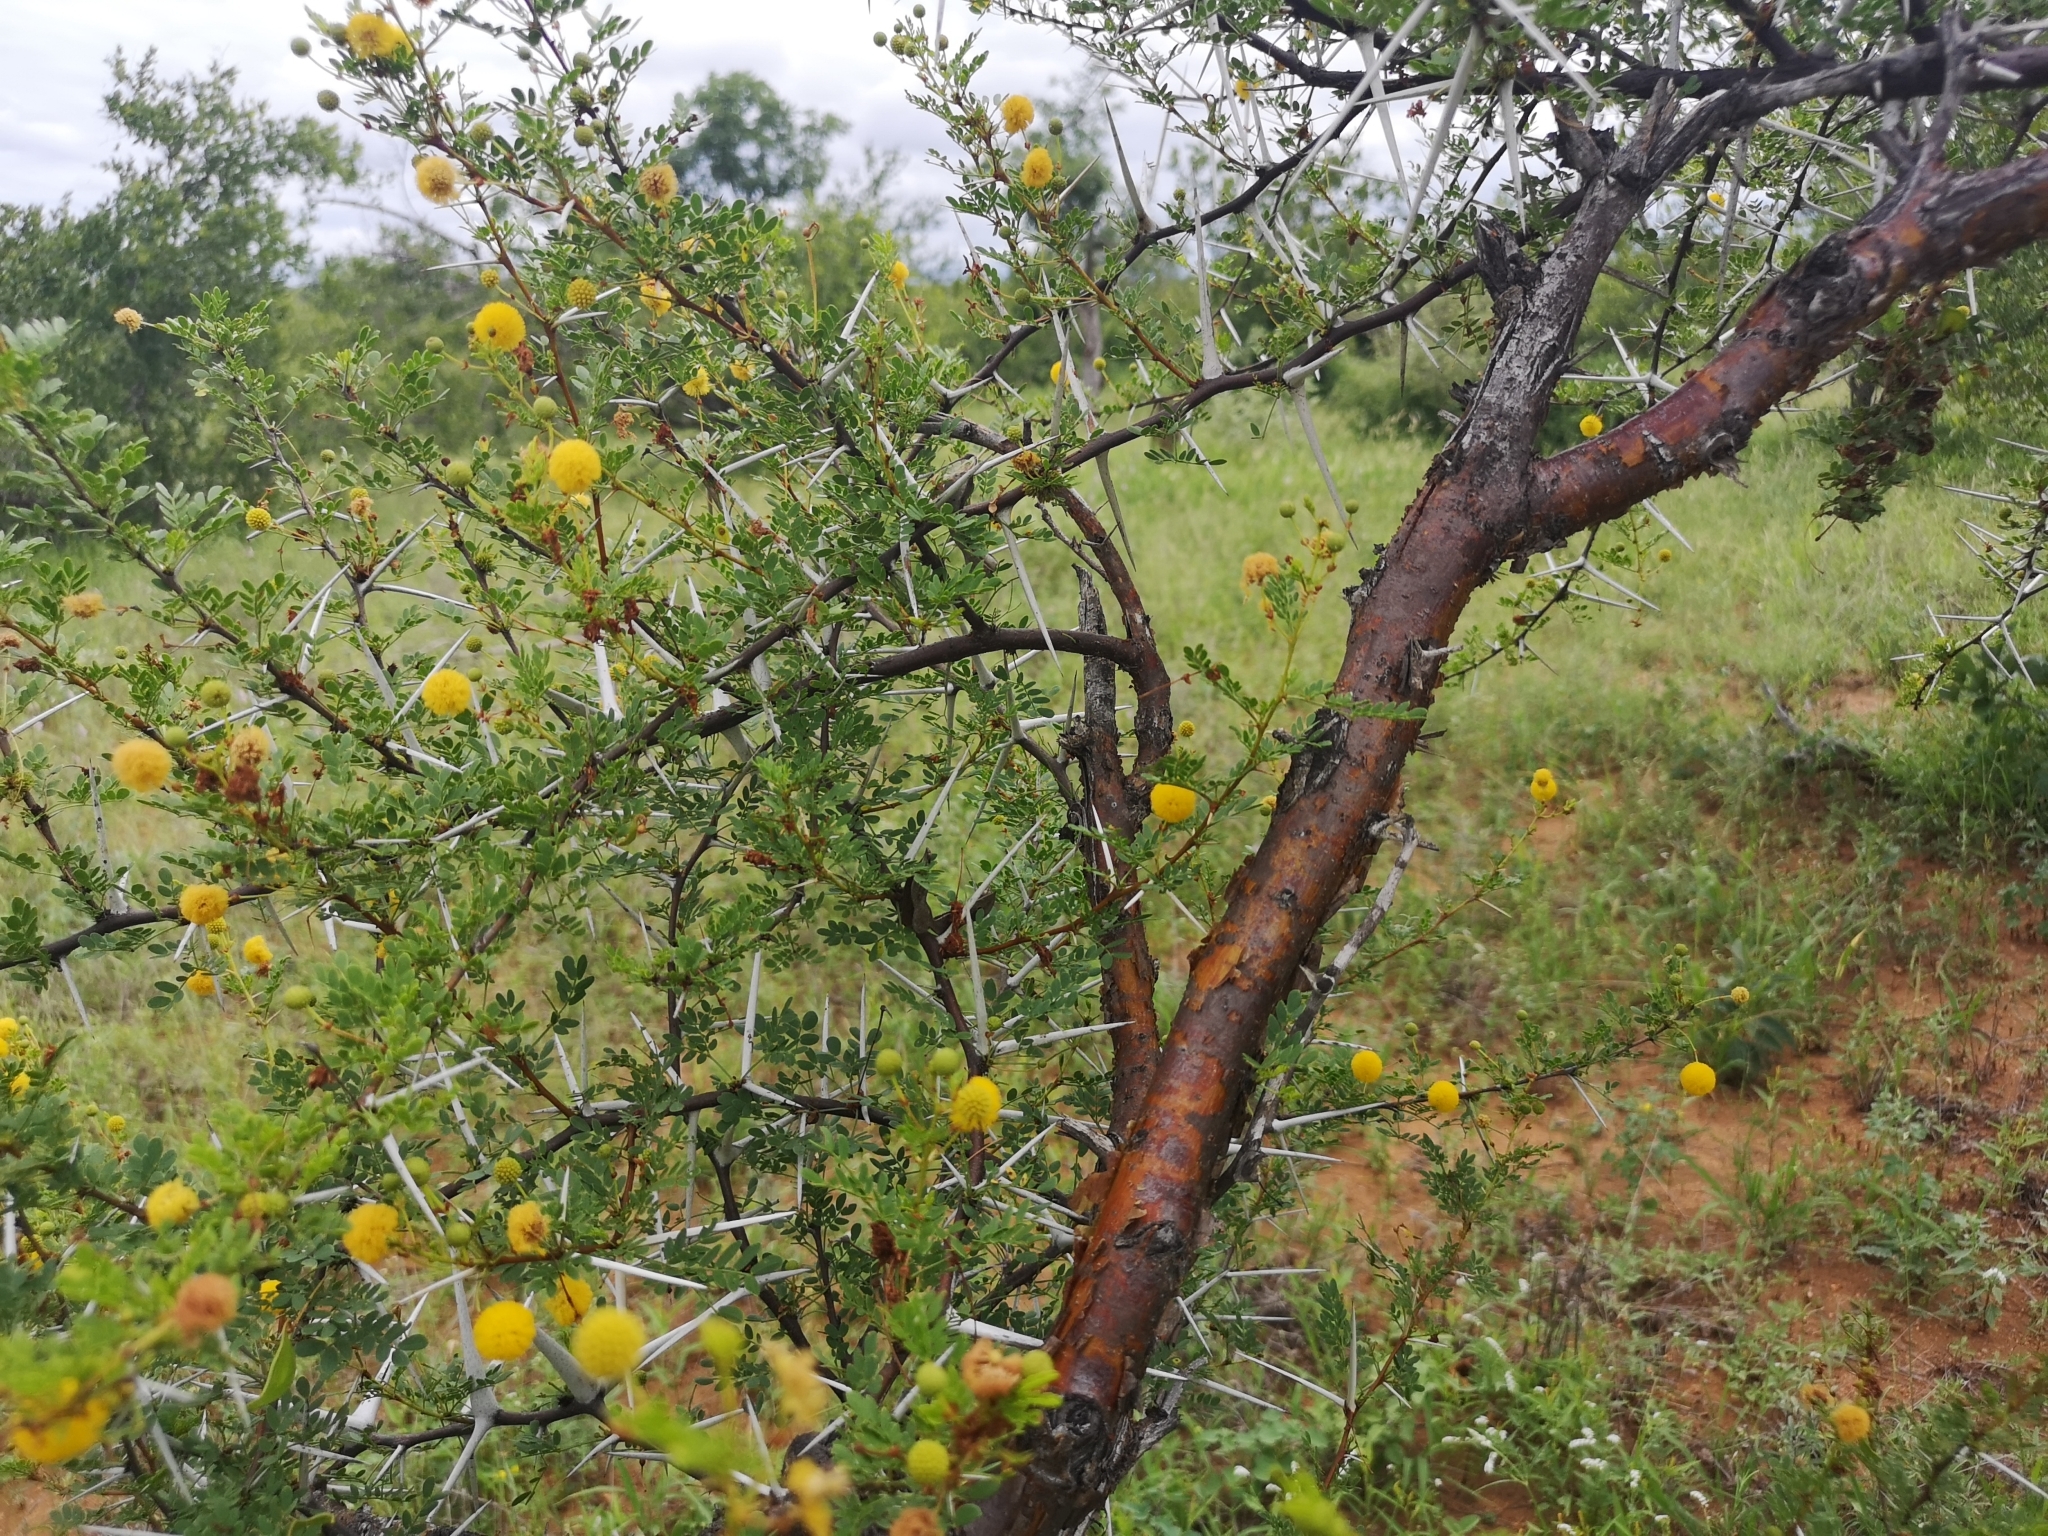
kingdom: Plantae
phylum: Tracheophyta
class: Magnoliopsida
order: Fabales
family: Fabaceae
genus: Vachellia
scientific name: Vachellia exuvialis
